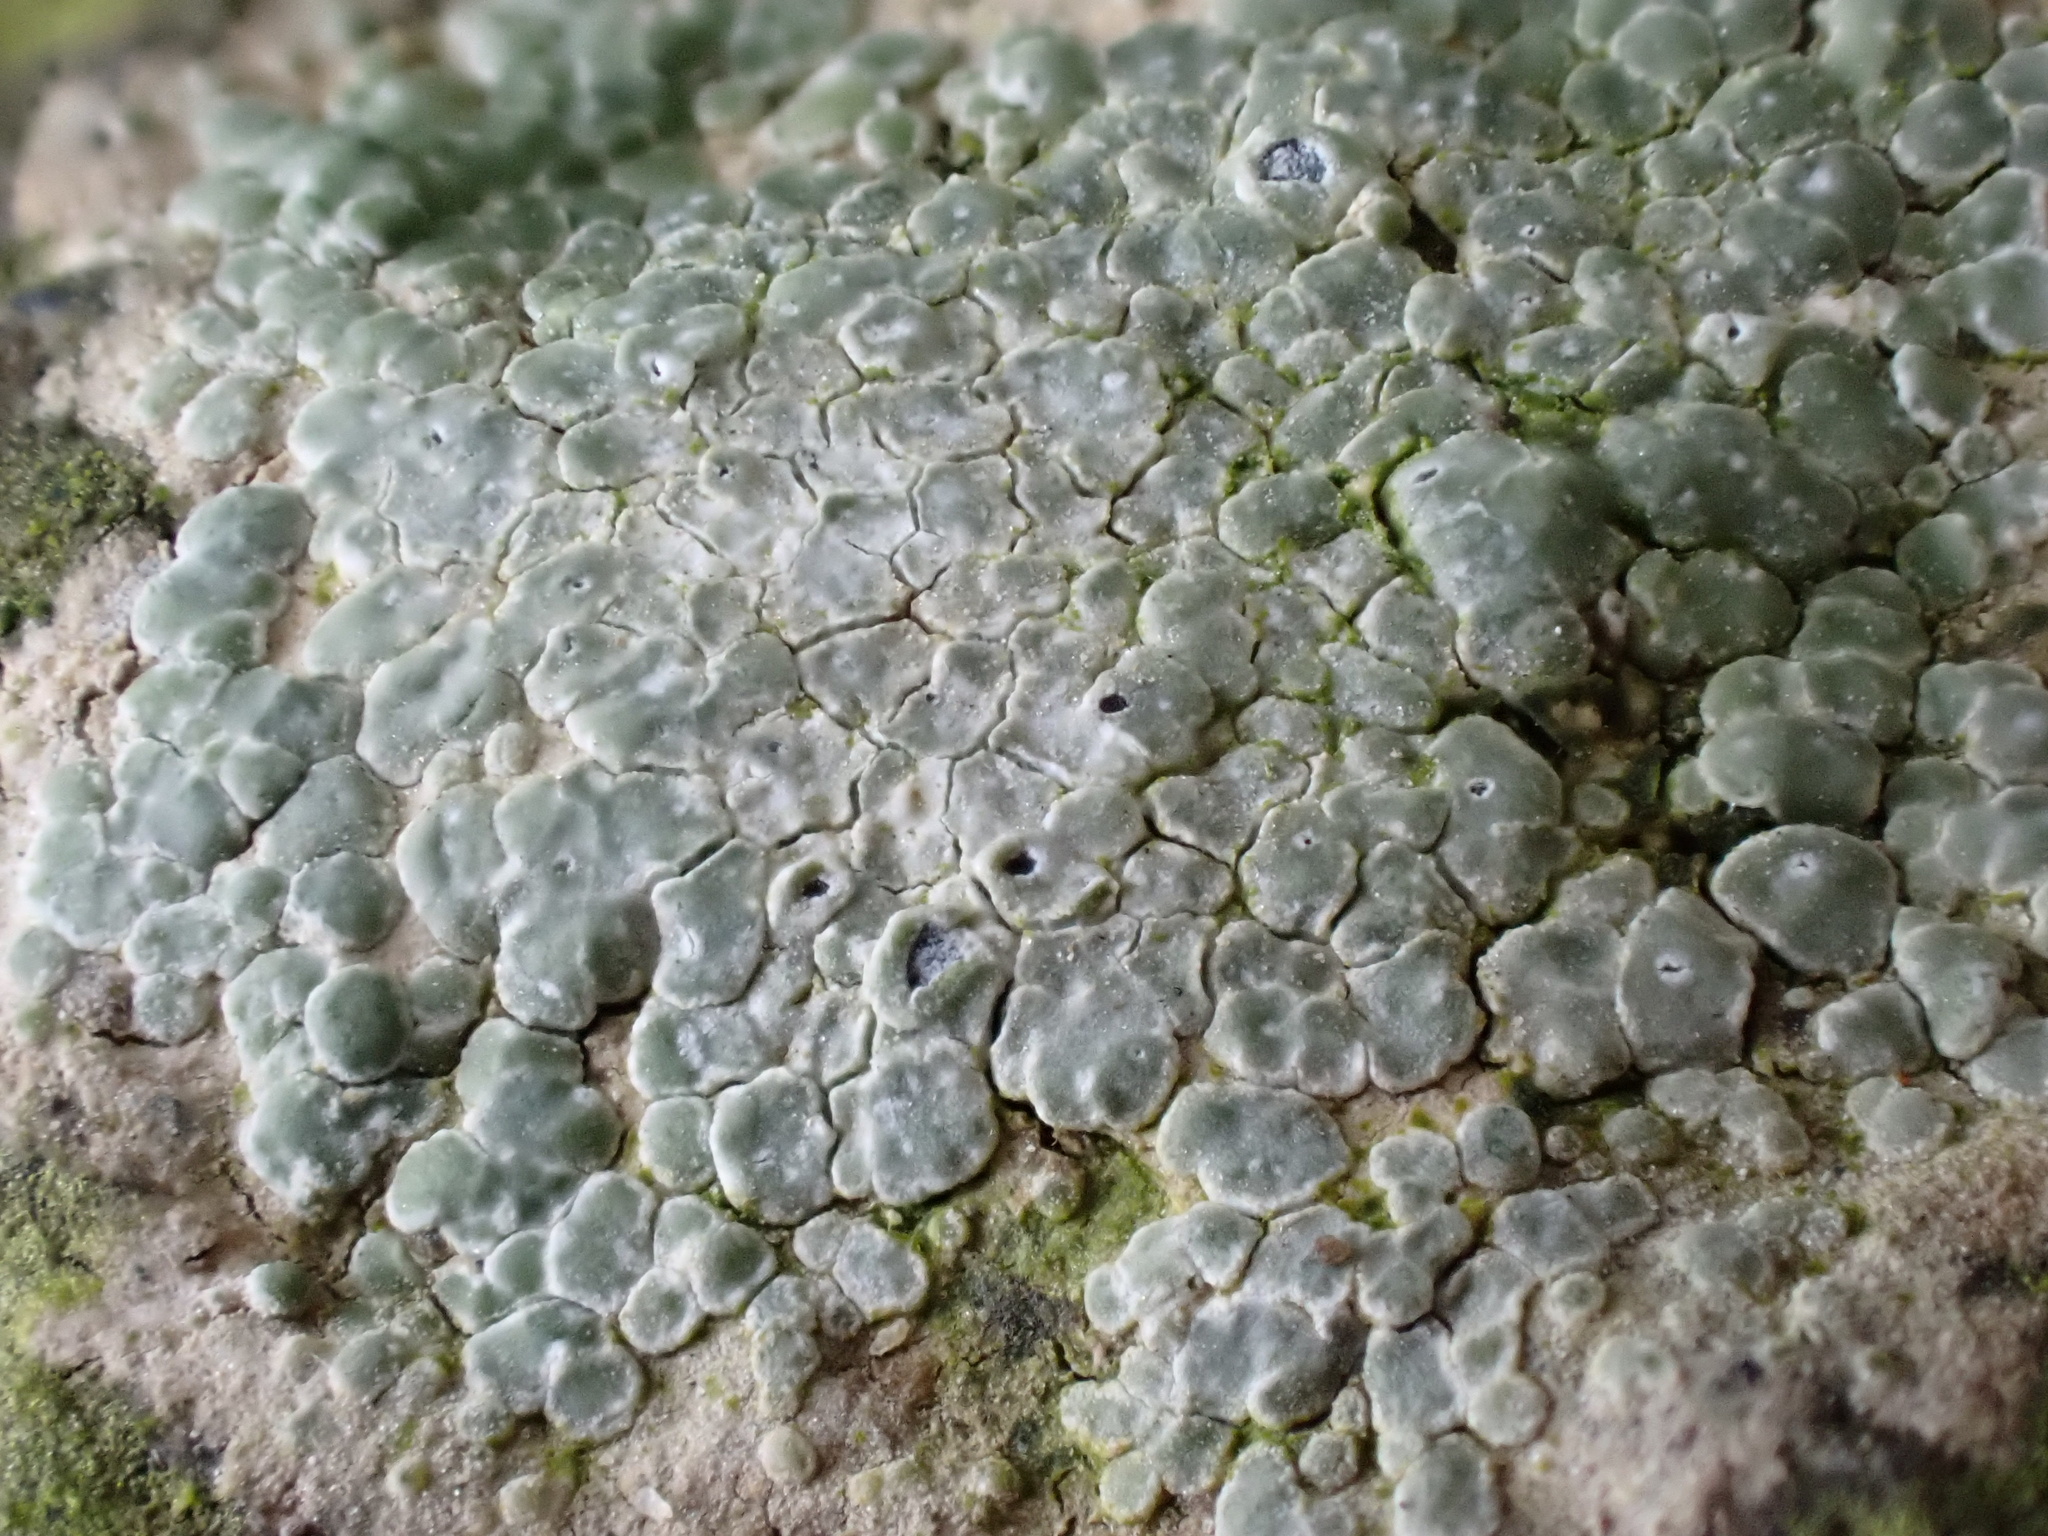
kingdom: Fungi
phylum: Ascomycota
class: Lecanoromycetes
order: Pertusariales
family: Megasporaceae
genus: Circinaria
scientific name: Circinaria contorta
